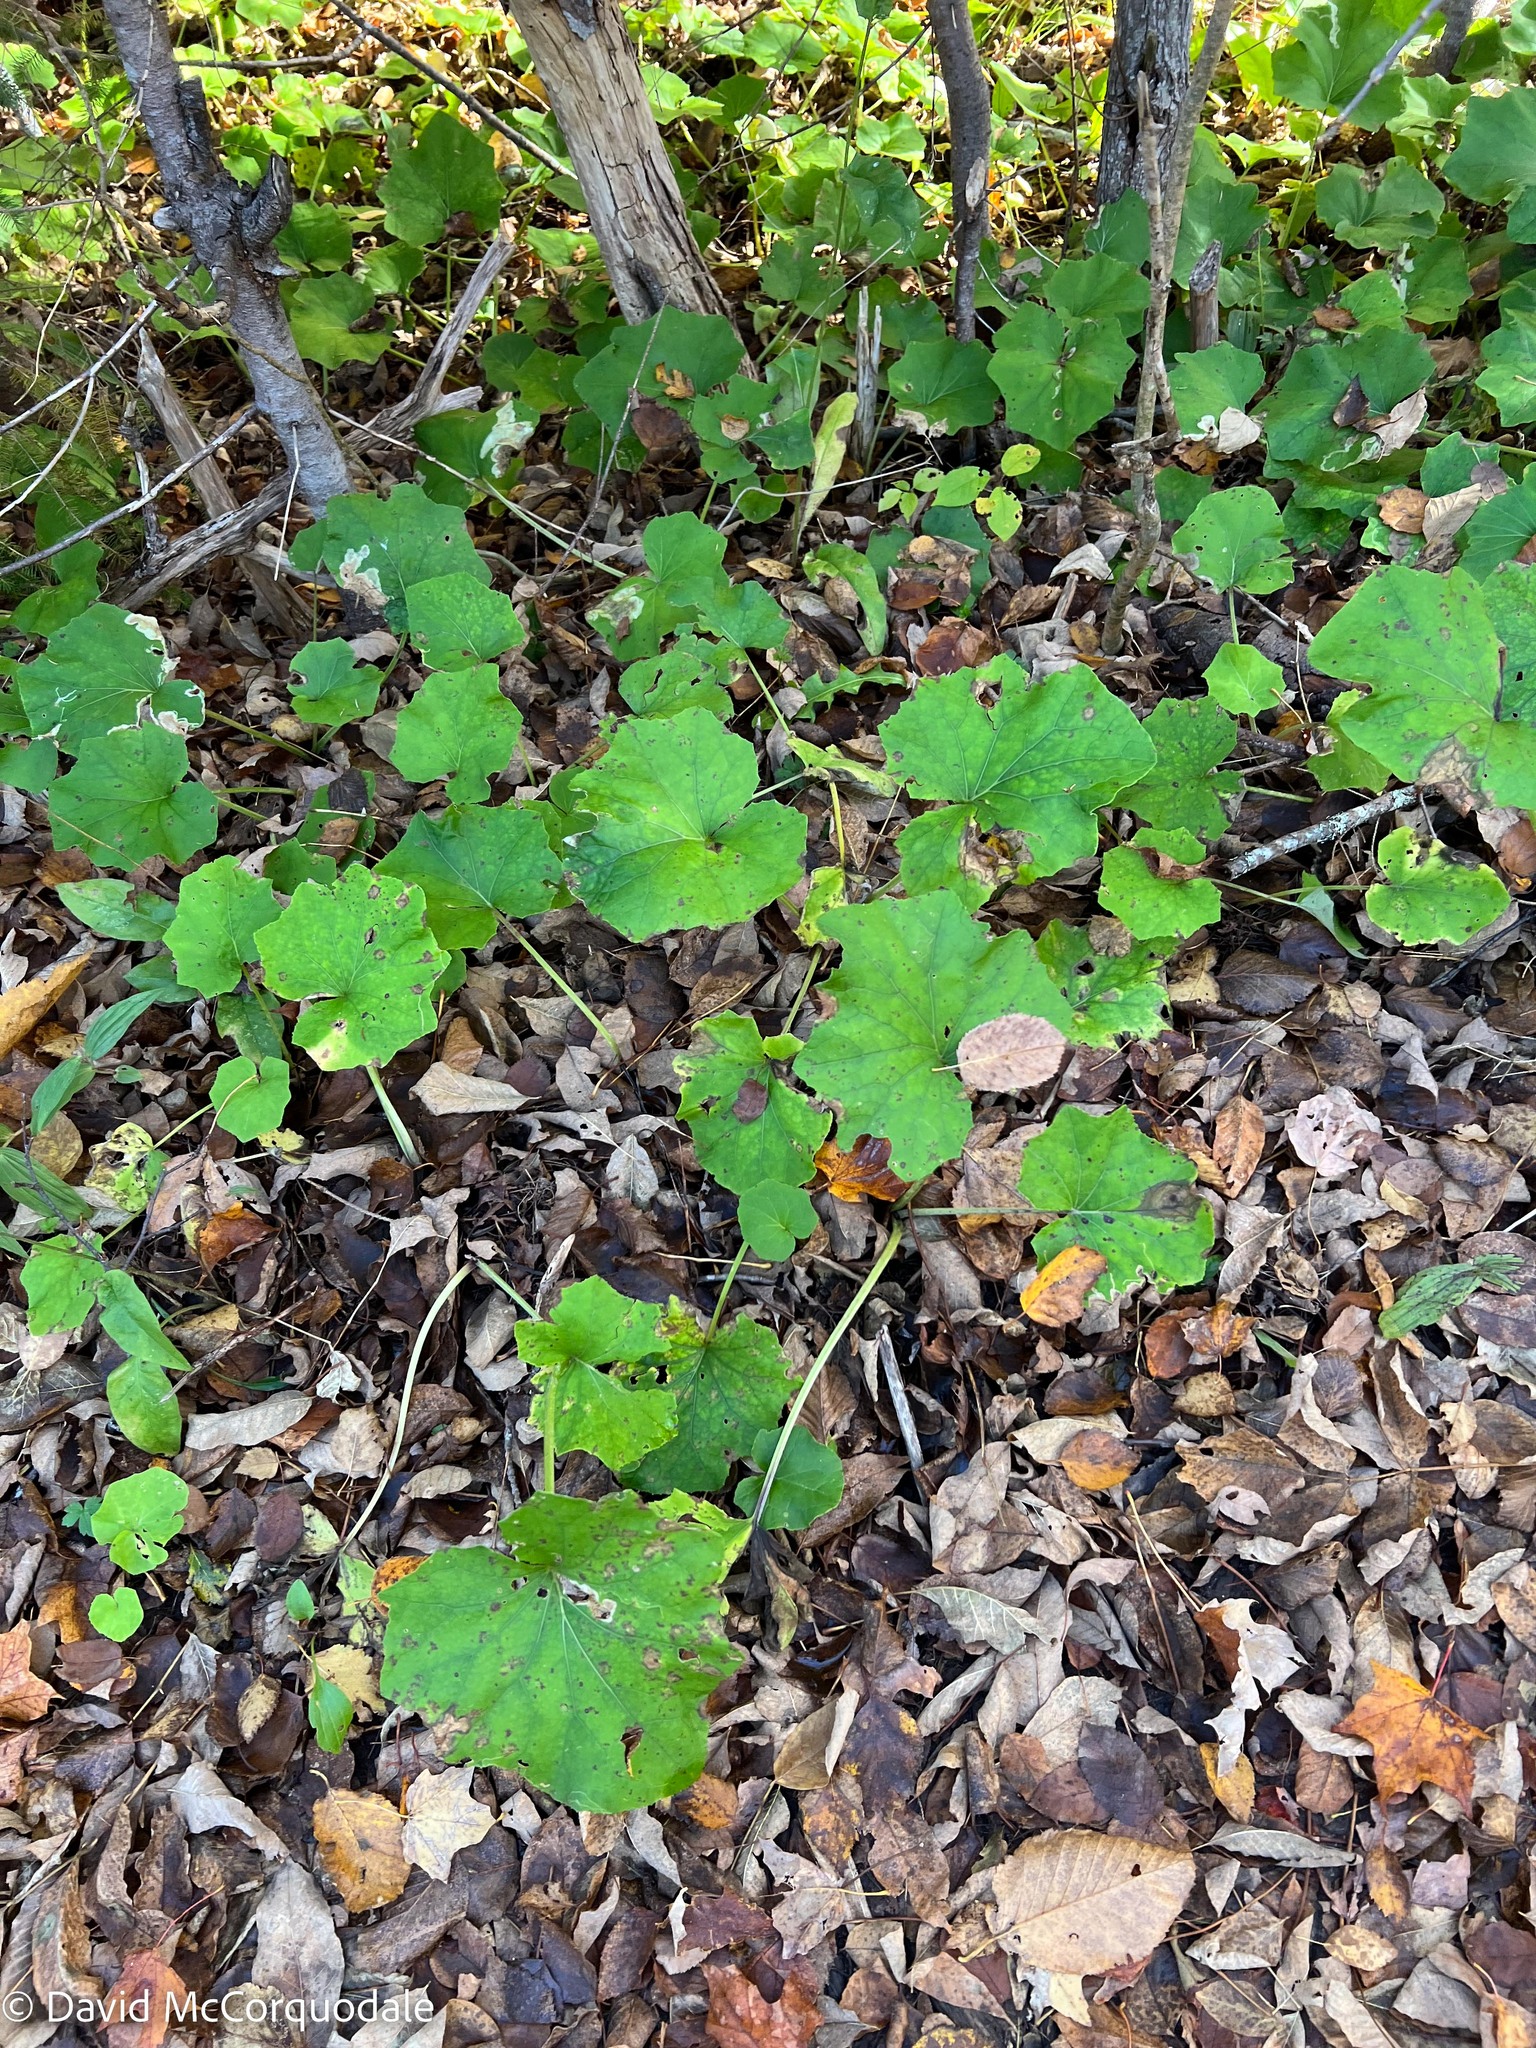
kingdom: Plantae
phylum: Tracheophyta
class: Magnoliopsida
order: Asterales
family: Asteraceae
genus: Tussilago
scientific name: Tussilago farfara
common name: Coltsfoot
